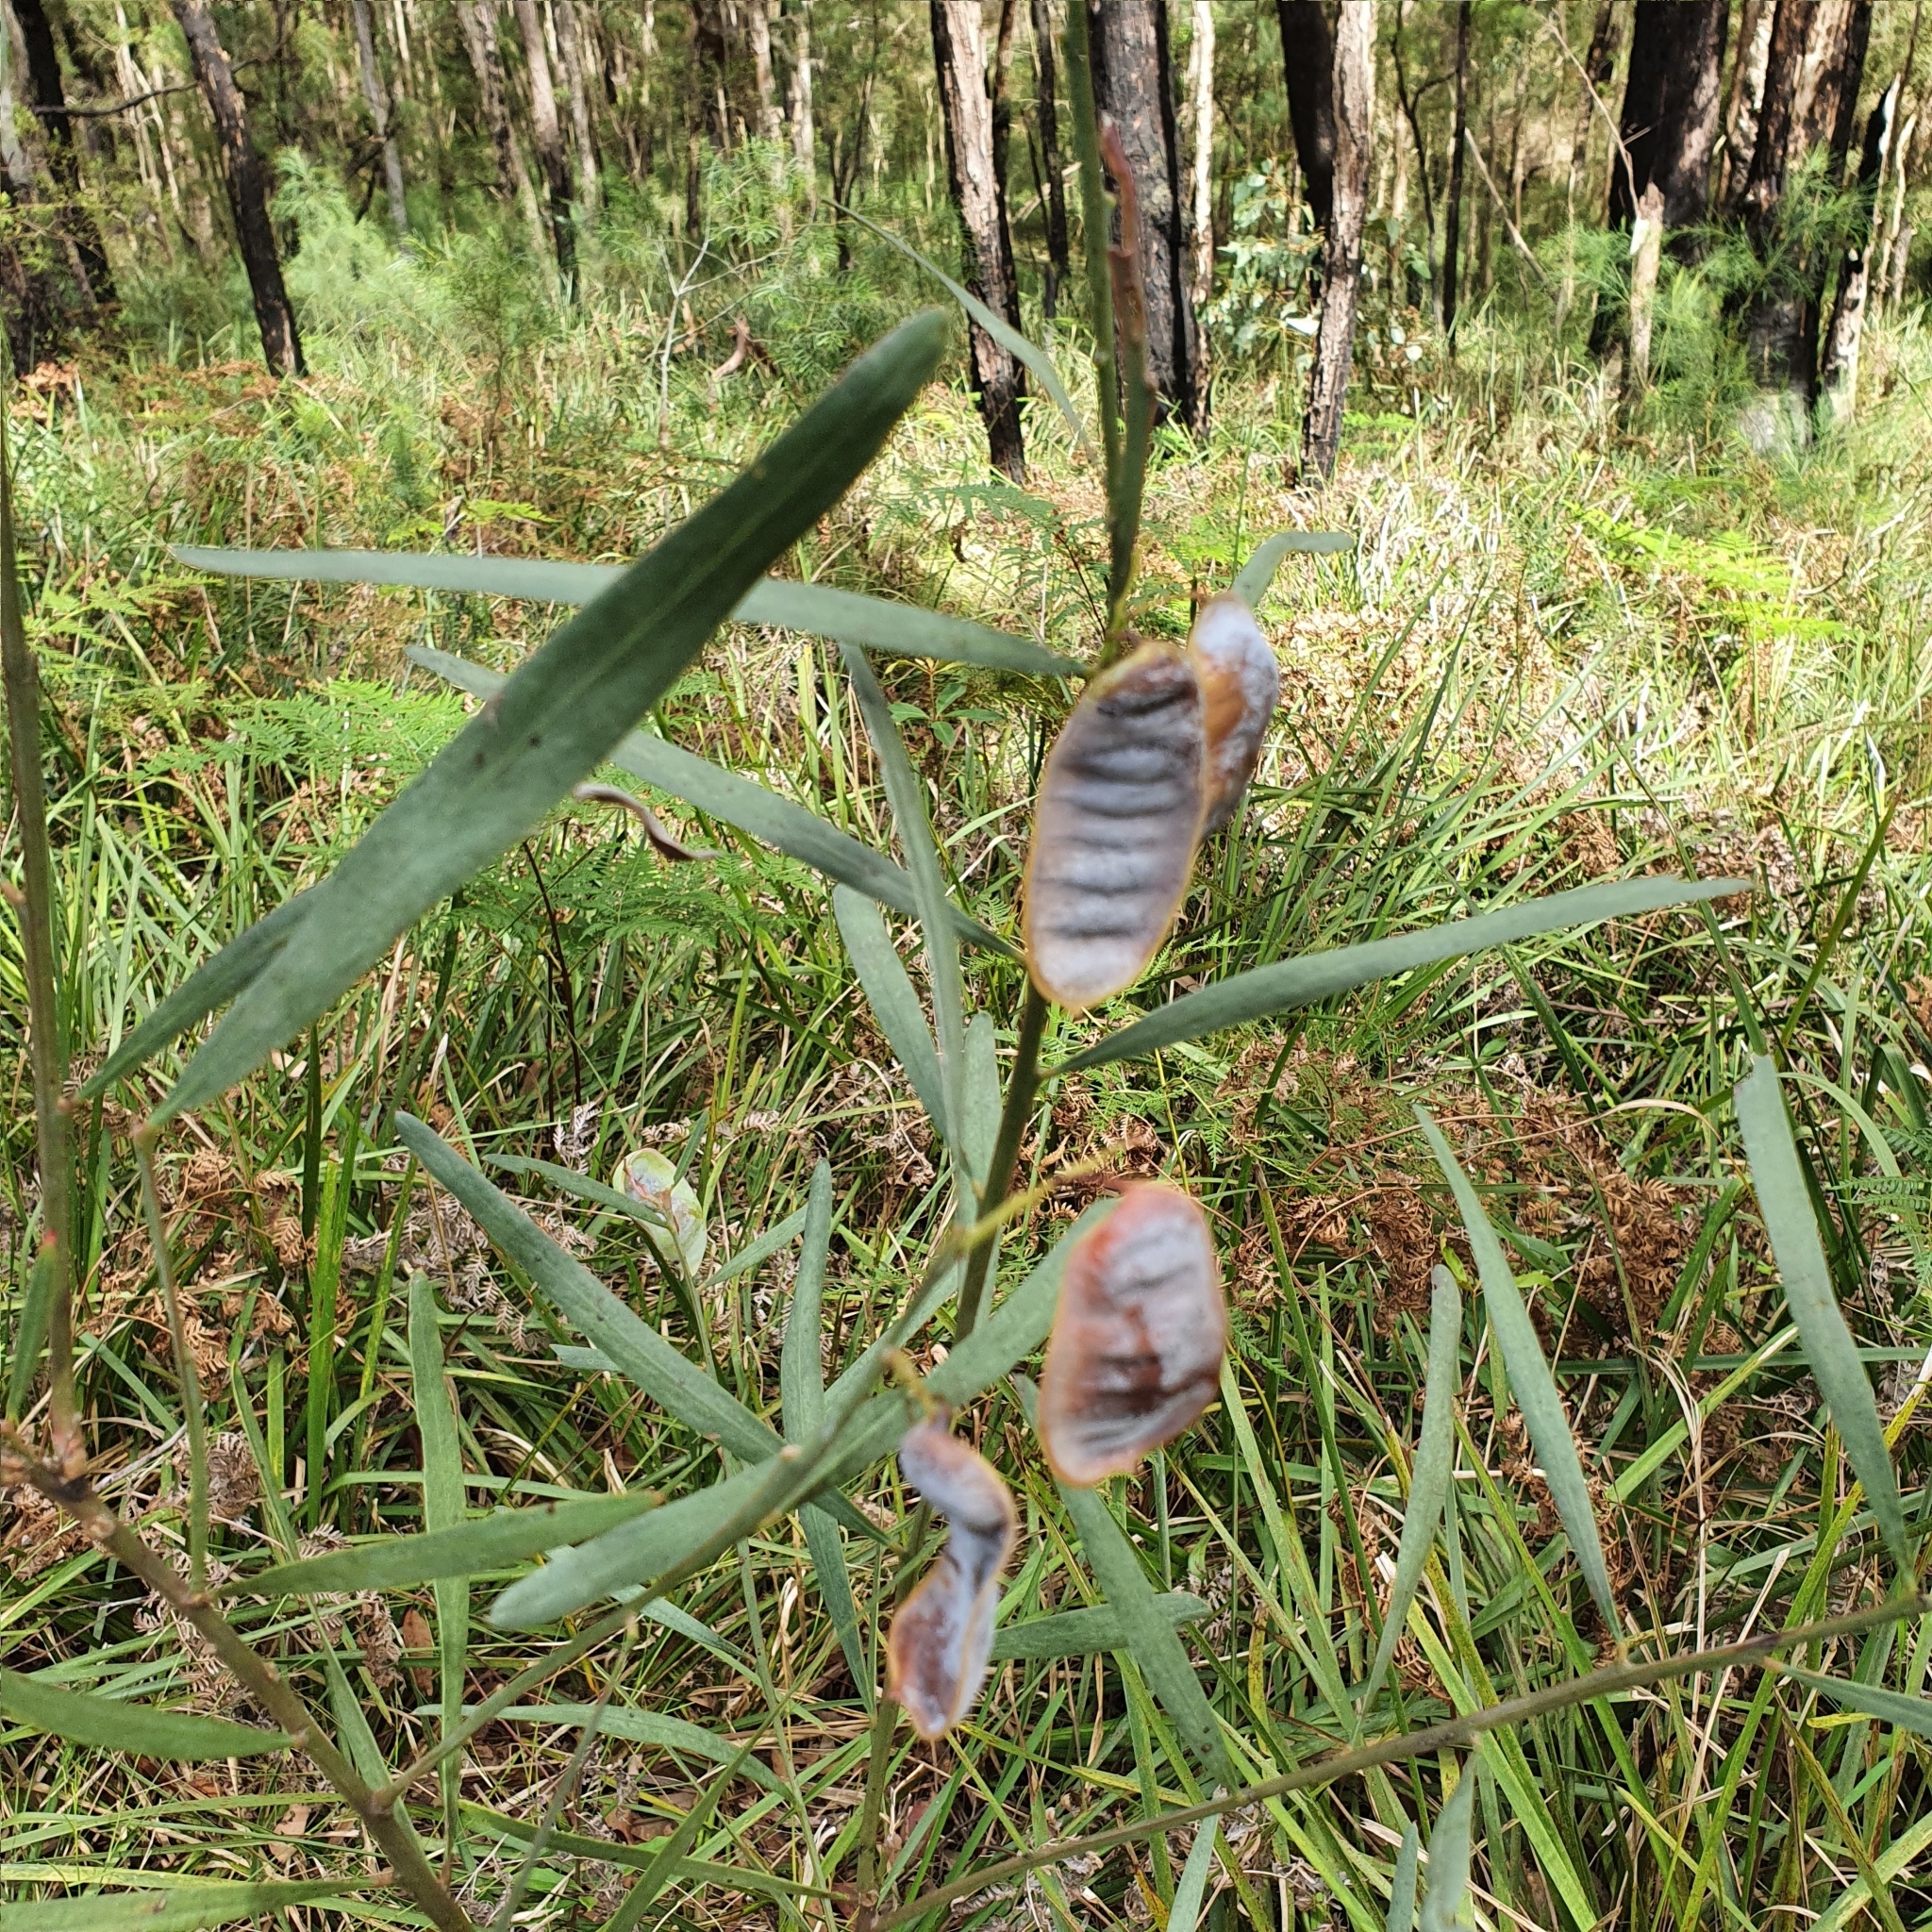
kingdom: Plantae
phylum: Tracheophyta
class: Magnoliopsida
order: Fabales
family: Fabaceae
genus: Acacia
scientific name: Acacia suaveolens
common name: Sweet acacia
